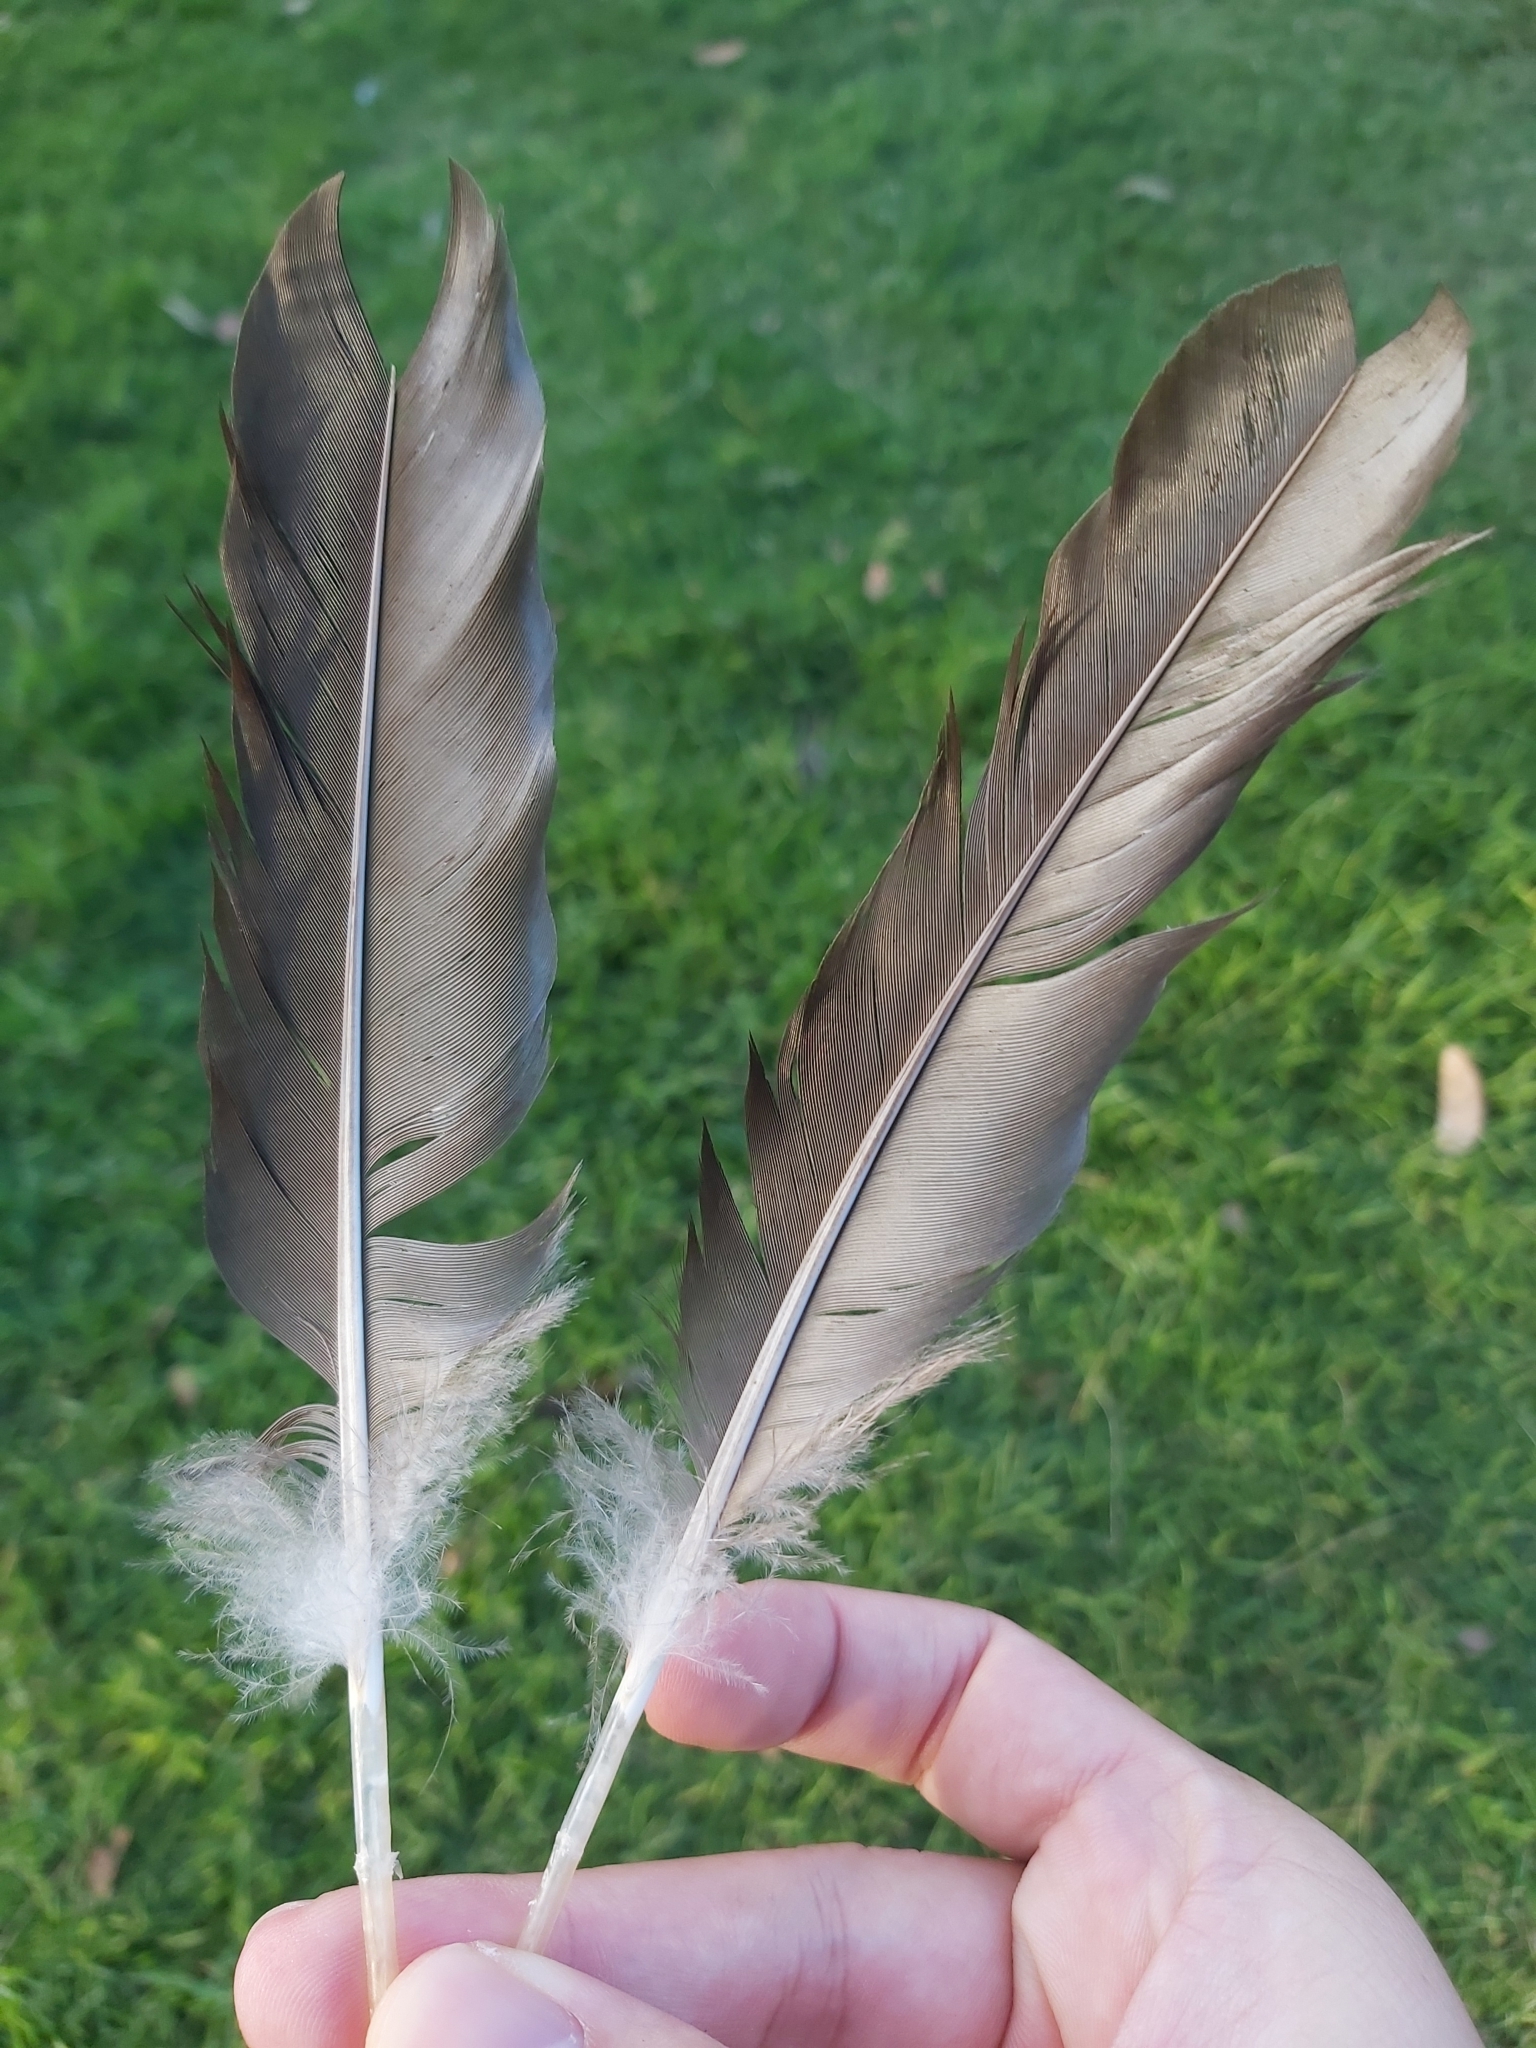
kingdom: Animalia
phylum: Chordata
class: Aves
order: Anseriformes
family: Anatidae
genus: Cairina
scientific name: Cairina moschata
